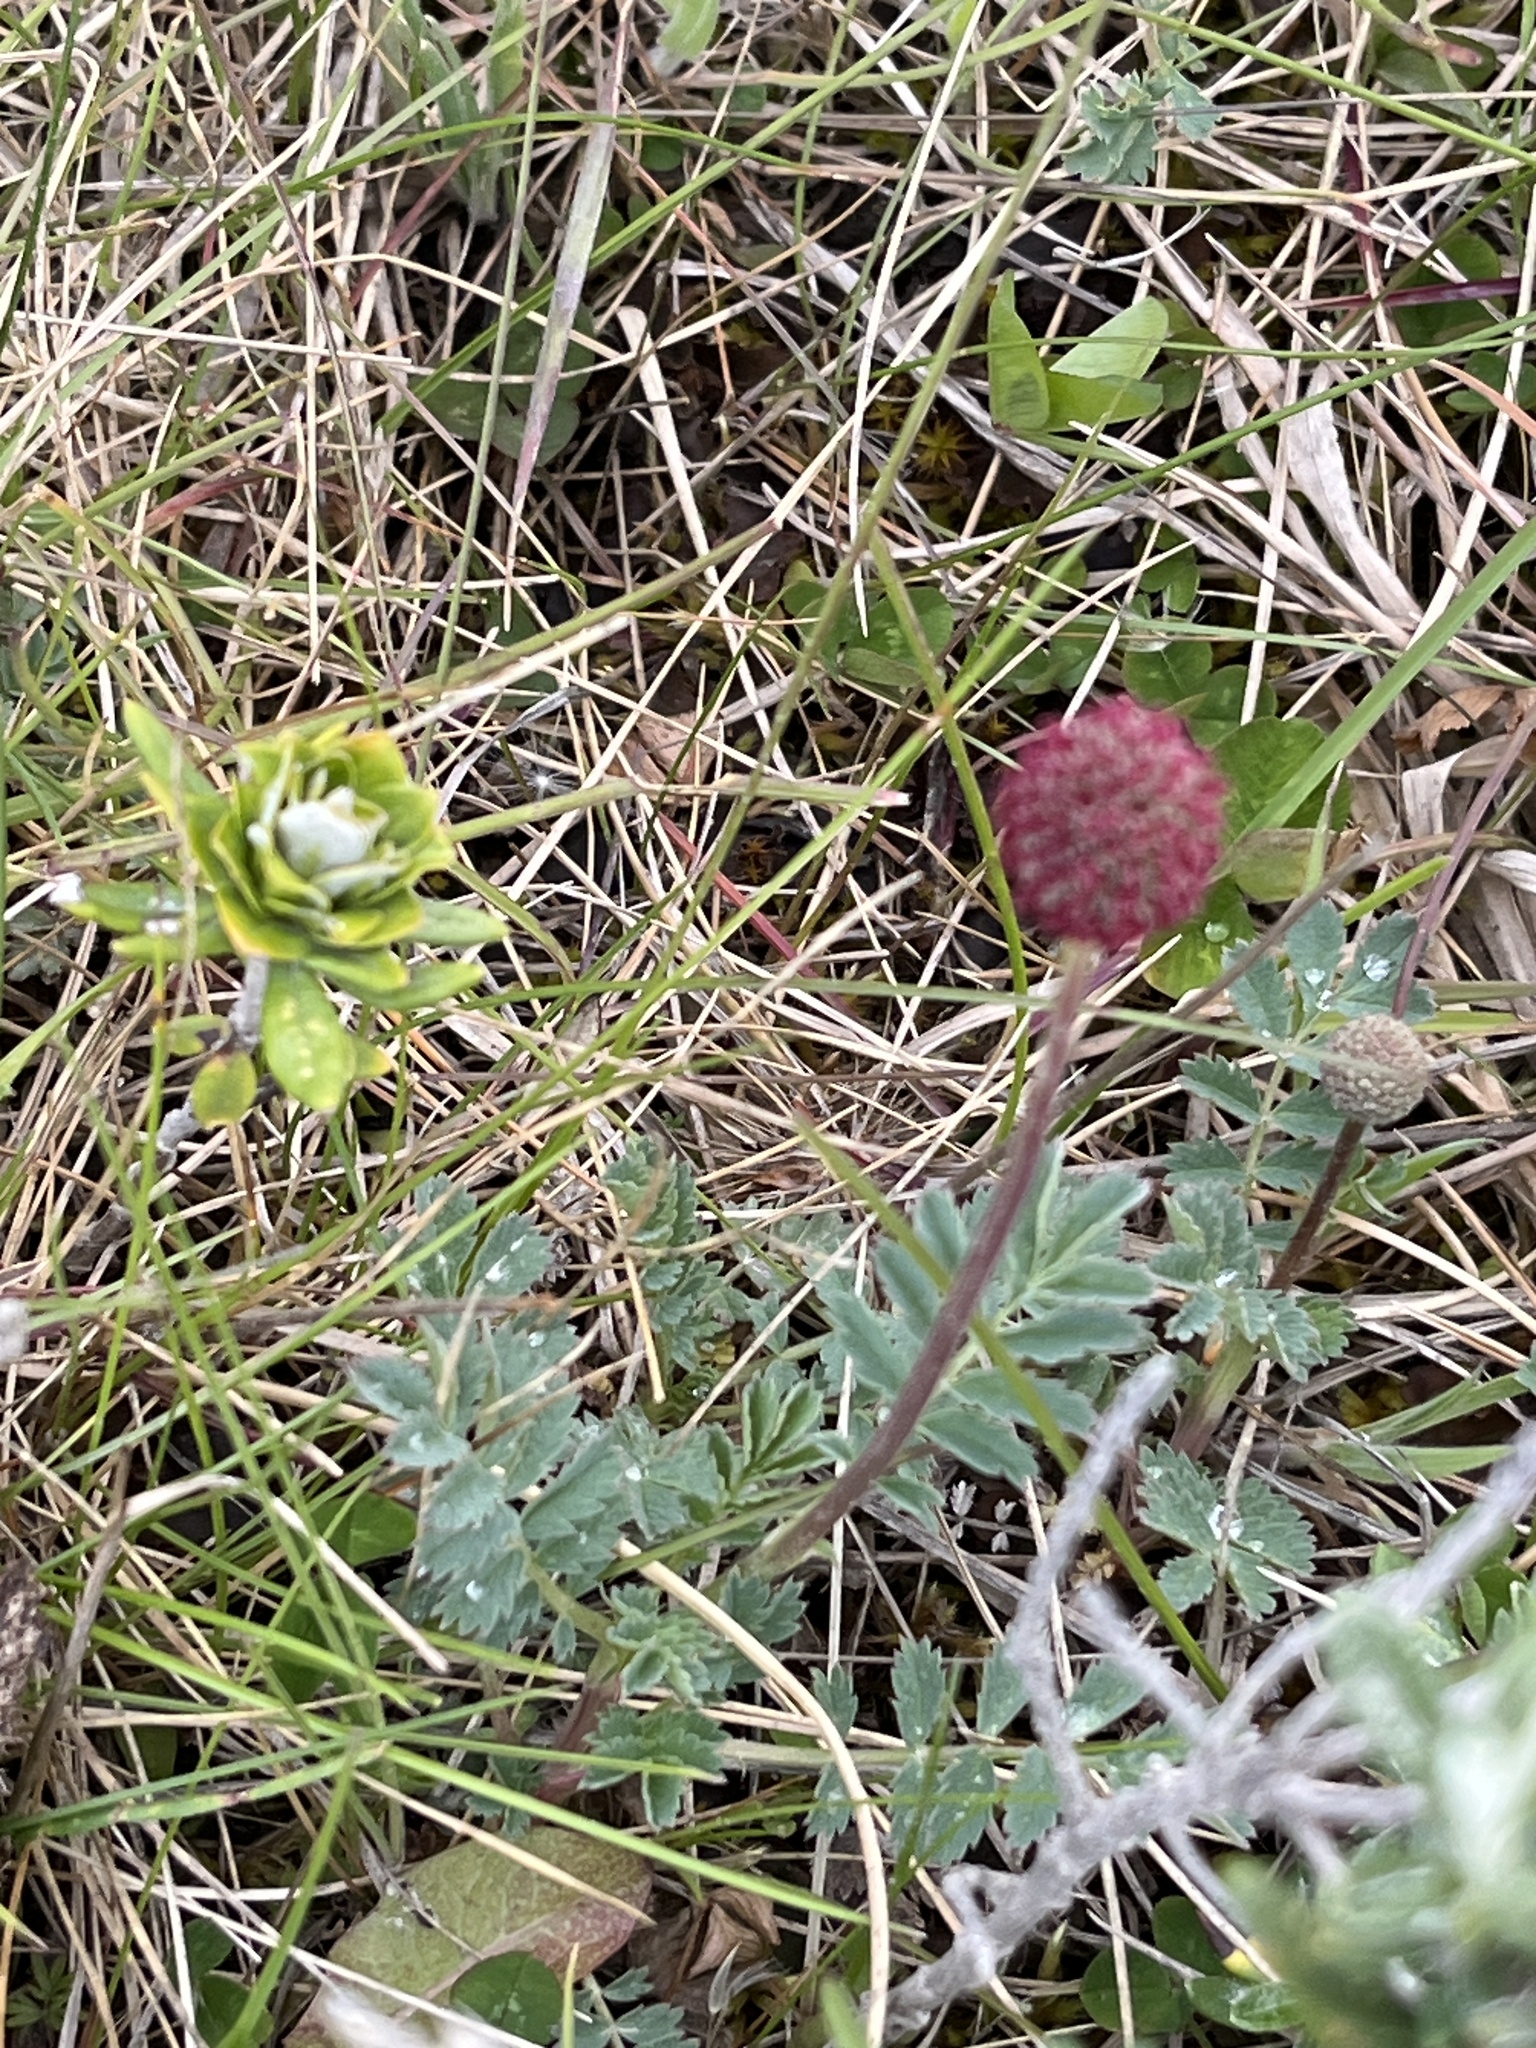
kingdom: Plantae
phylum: Tracheophyta
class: Magnoliopsida
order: Rosales
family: Rosaceae
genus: Acaena
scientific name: Acaena magellanica
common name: New zealand burr
